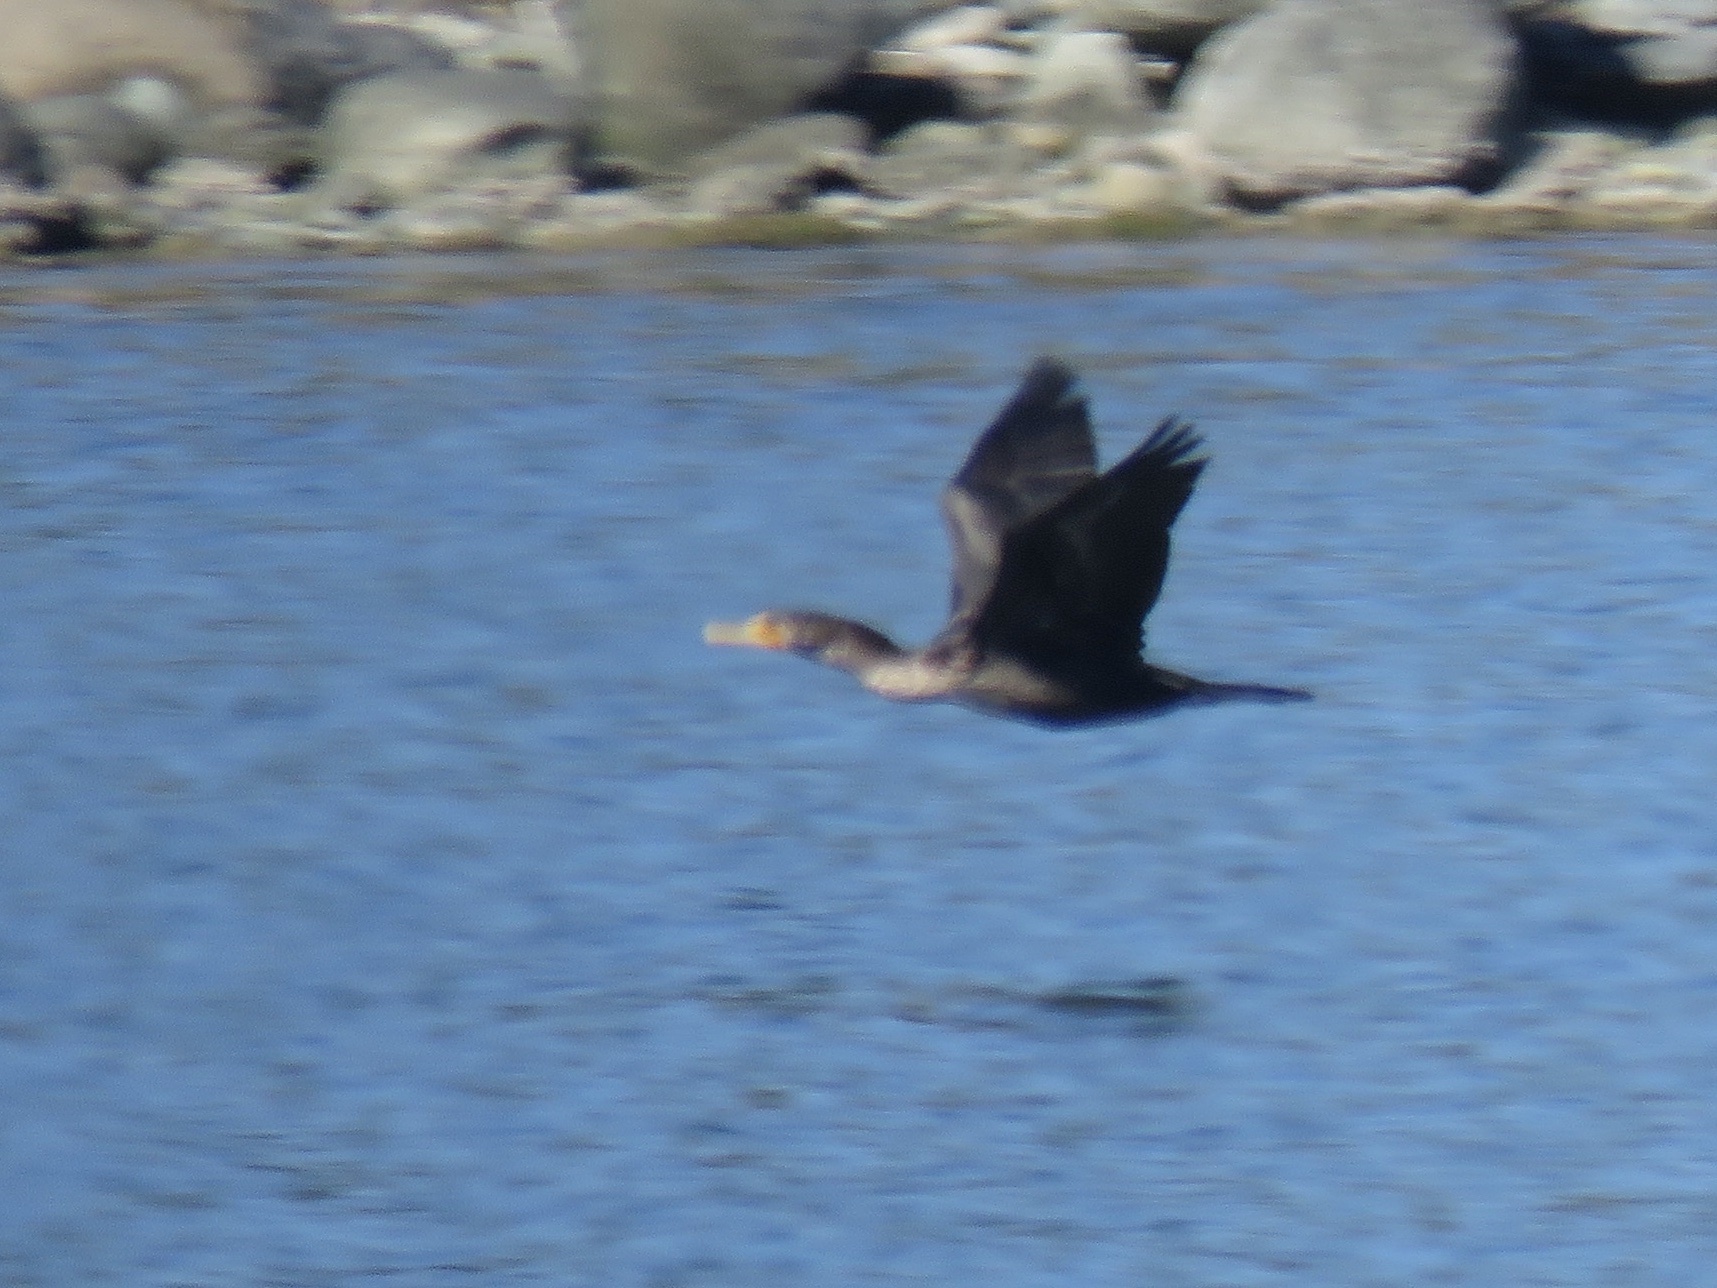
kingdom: Animalia
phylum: Chordata
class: Aves
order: Suliformes
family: Phalacrocoracidae
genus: Phalacrocorax
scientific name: Phalacrocorax auritus
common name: Double-crested cormorant
